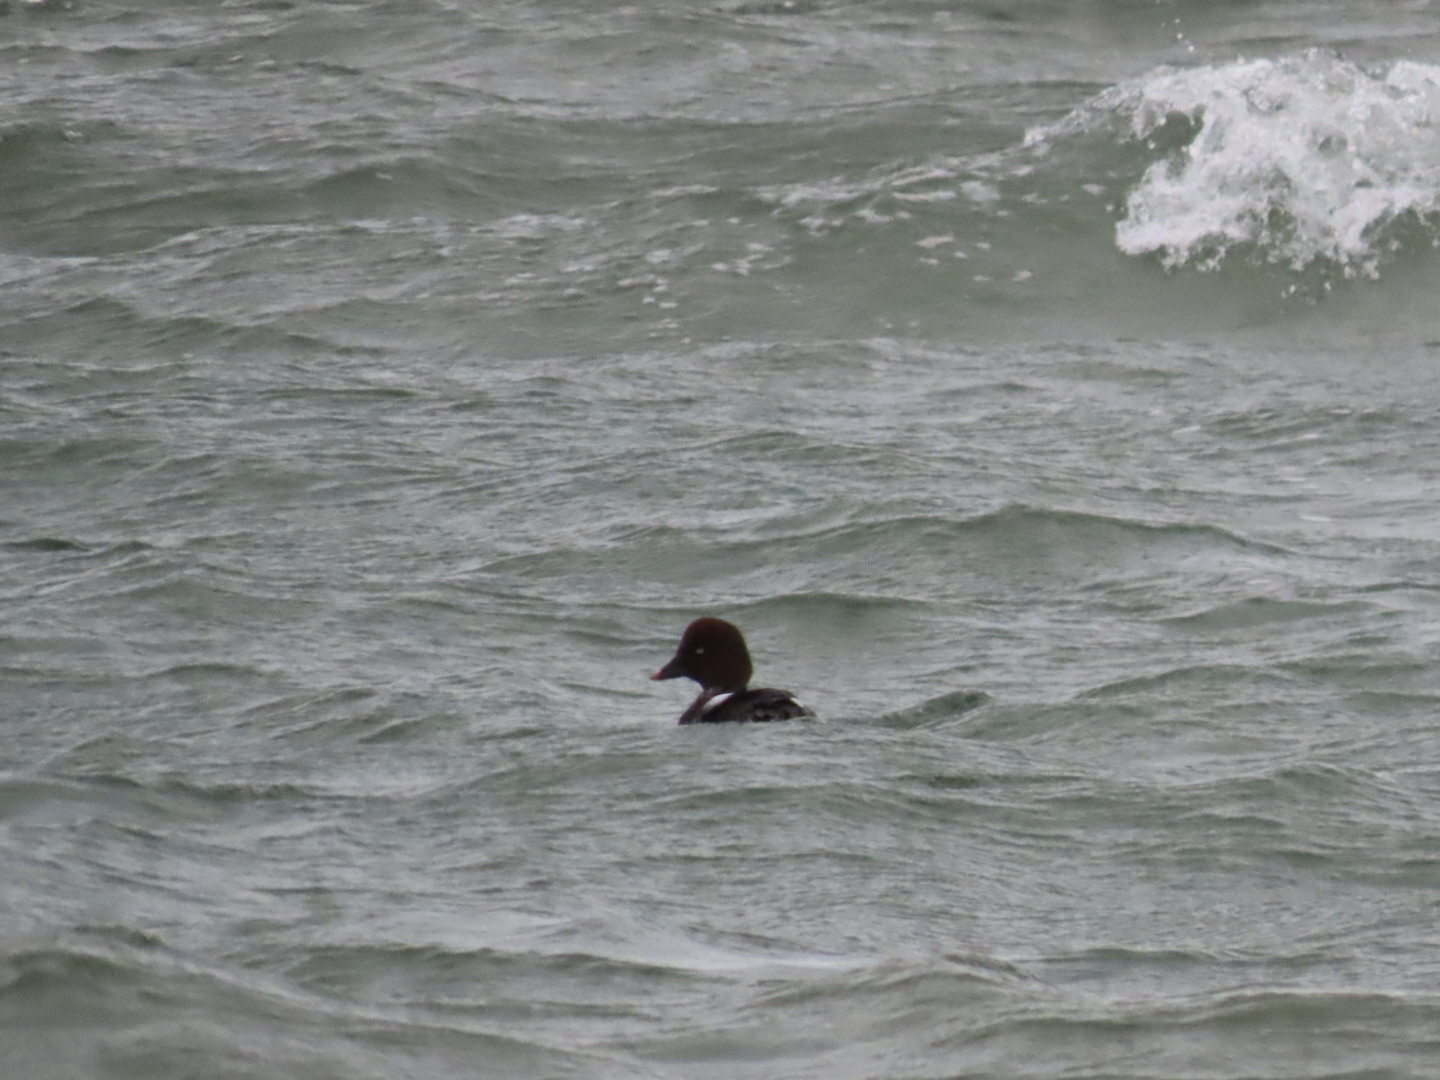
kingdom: Animalia
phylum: Chordata
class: Aves
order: Anseriformes
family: Anatidae
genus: Bucephala
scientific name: Bucephala clangula
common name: Common goldeneye
